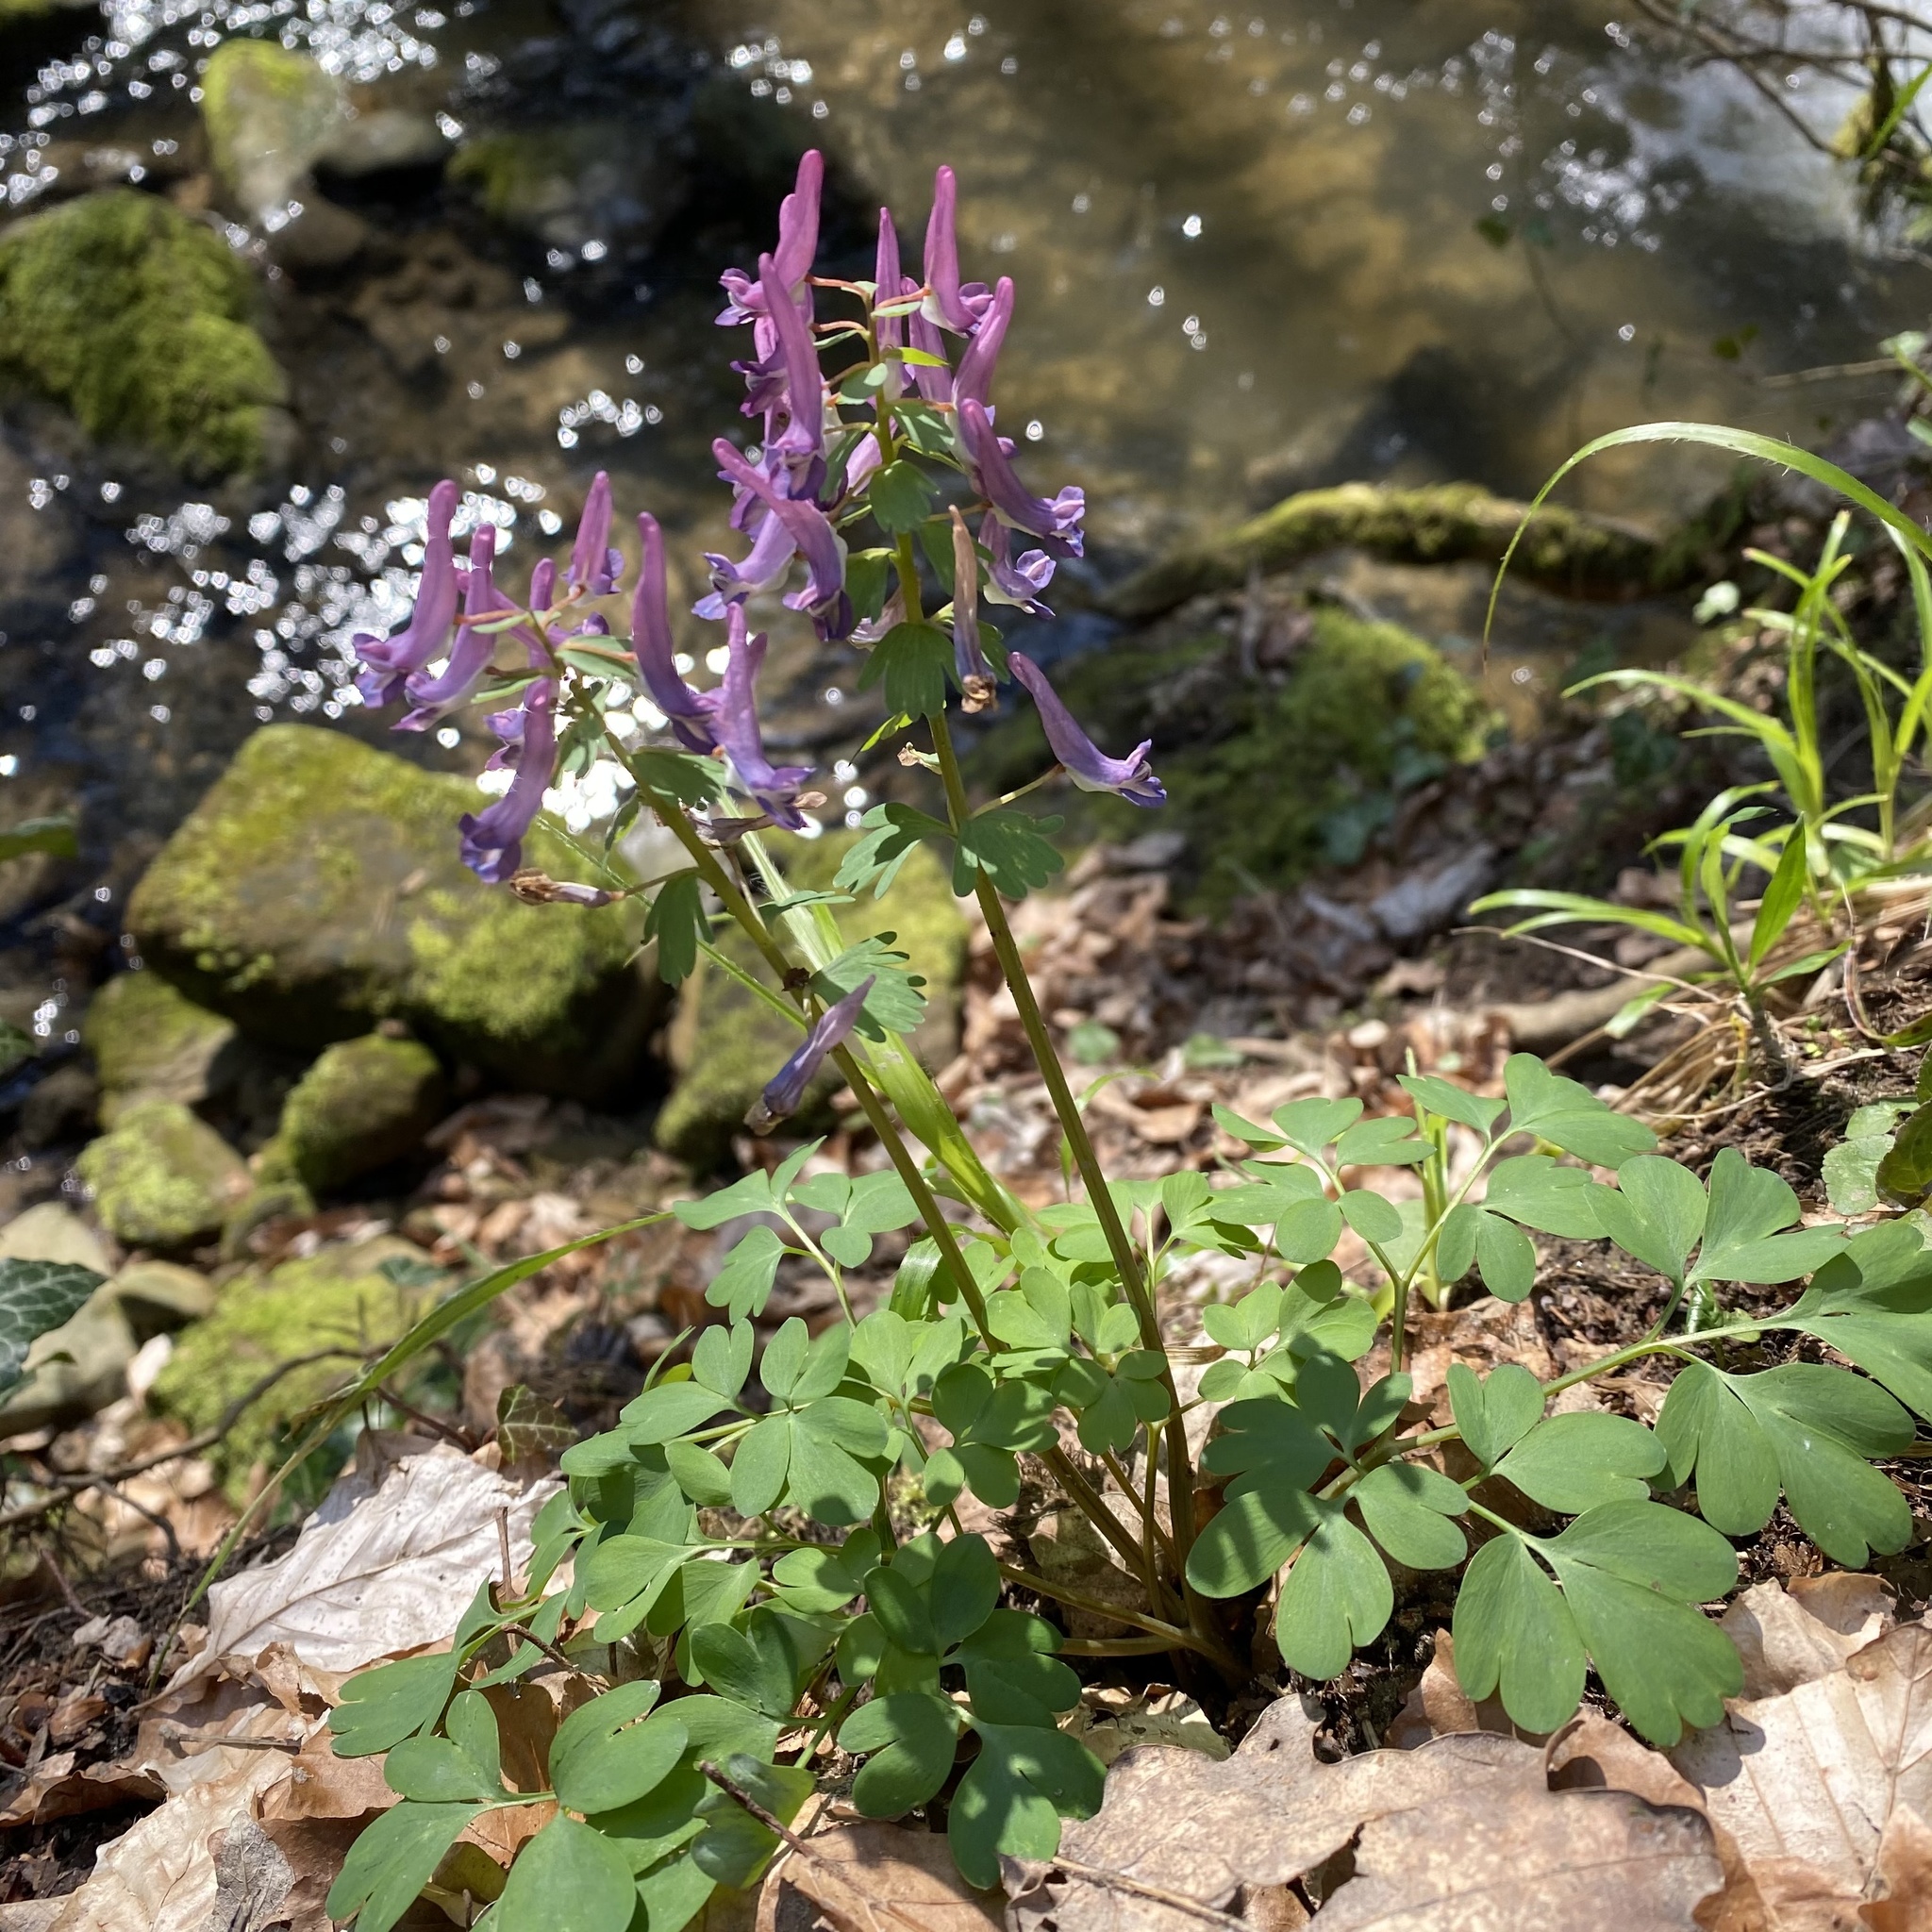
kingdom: Plantae
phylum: Tracheophyta
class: Magnoliopsida
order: Ranunculales
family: Papaveraceae
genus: Corydalis
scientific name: Corydalis solida
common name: Bird-in-a-bush
